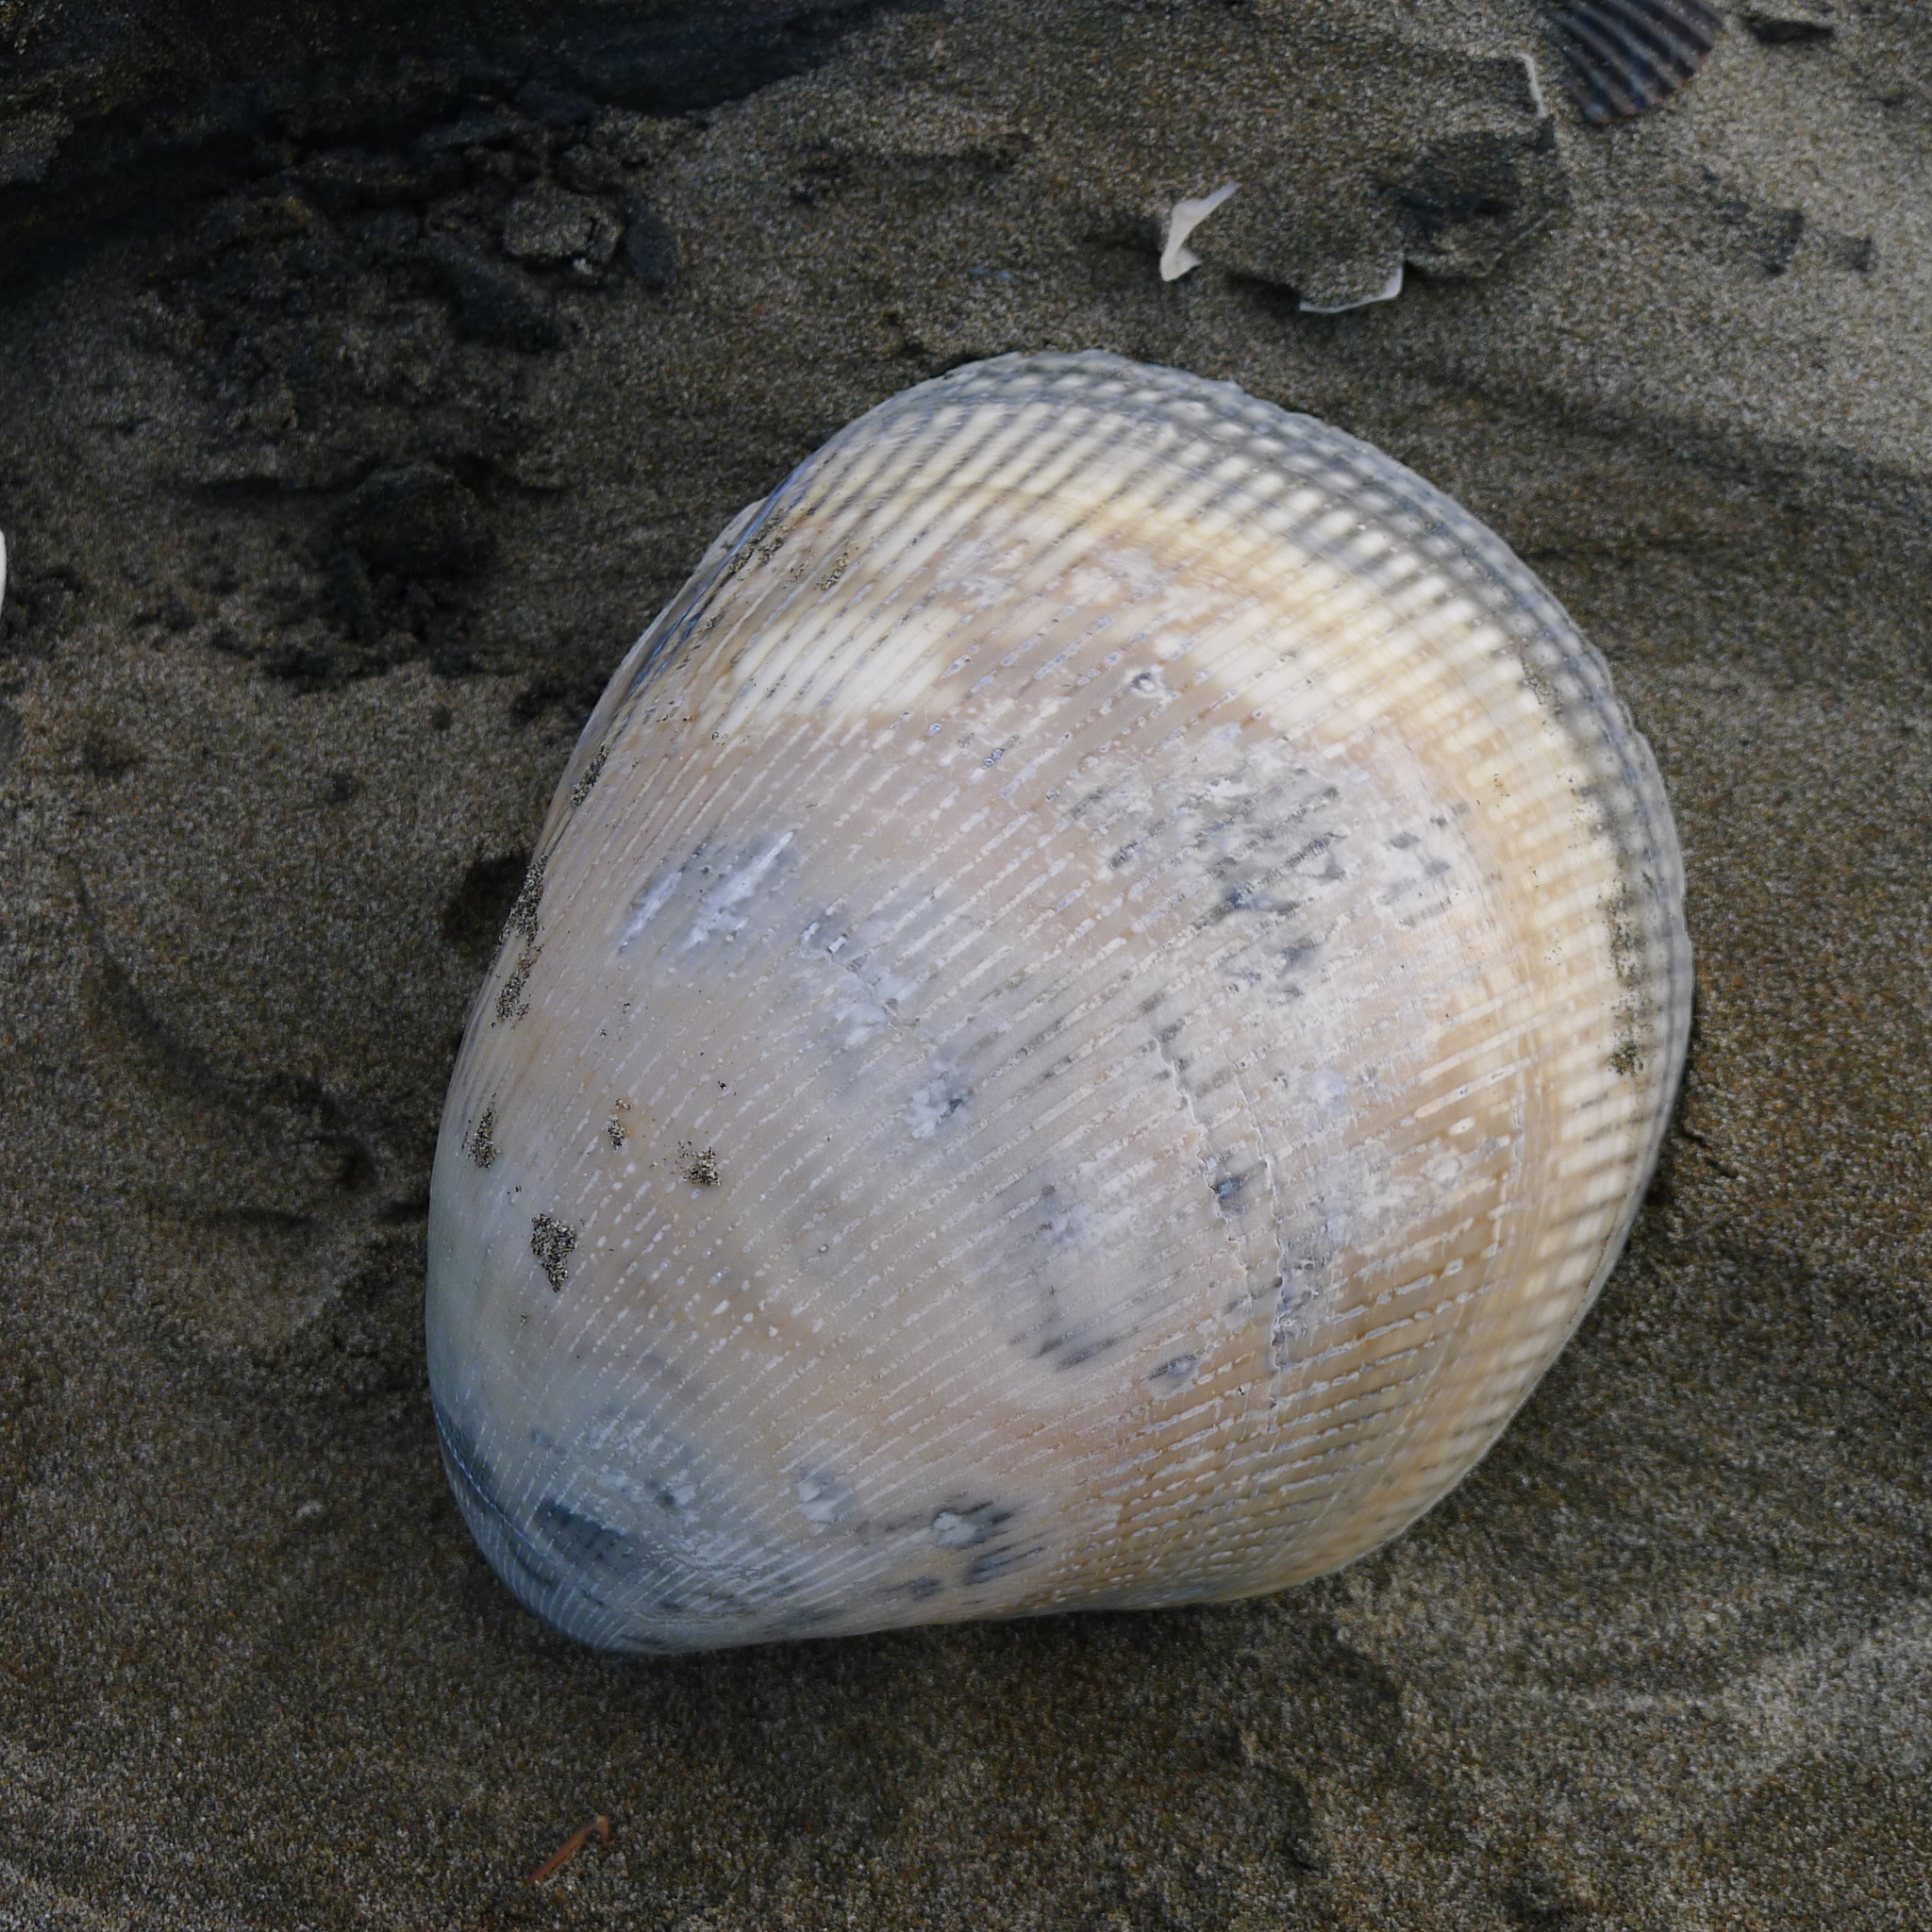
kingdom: Animalia
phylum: Mollusca
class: Bivalvia
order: Cardiida
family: Cardiidae
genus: Laevicardium
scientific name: Laevicardium elatum
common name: Giant pacific eggcockle
